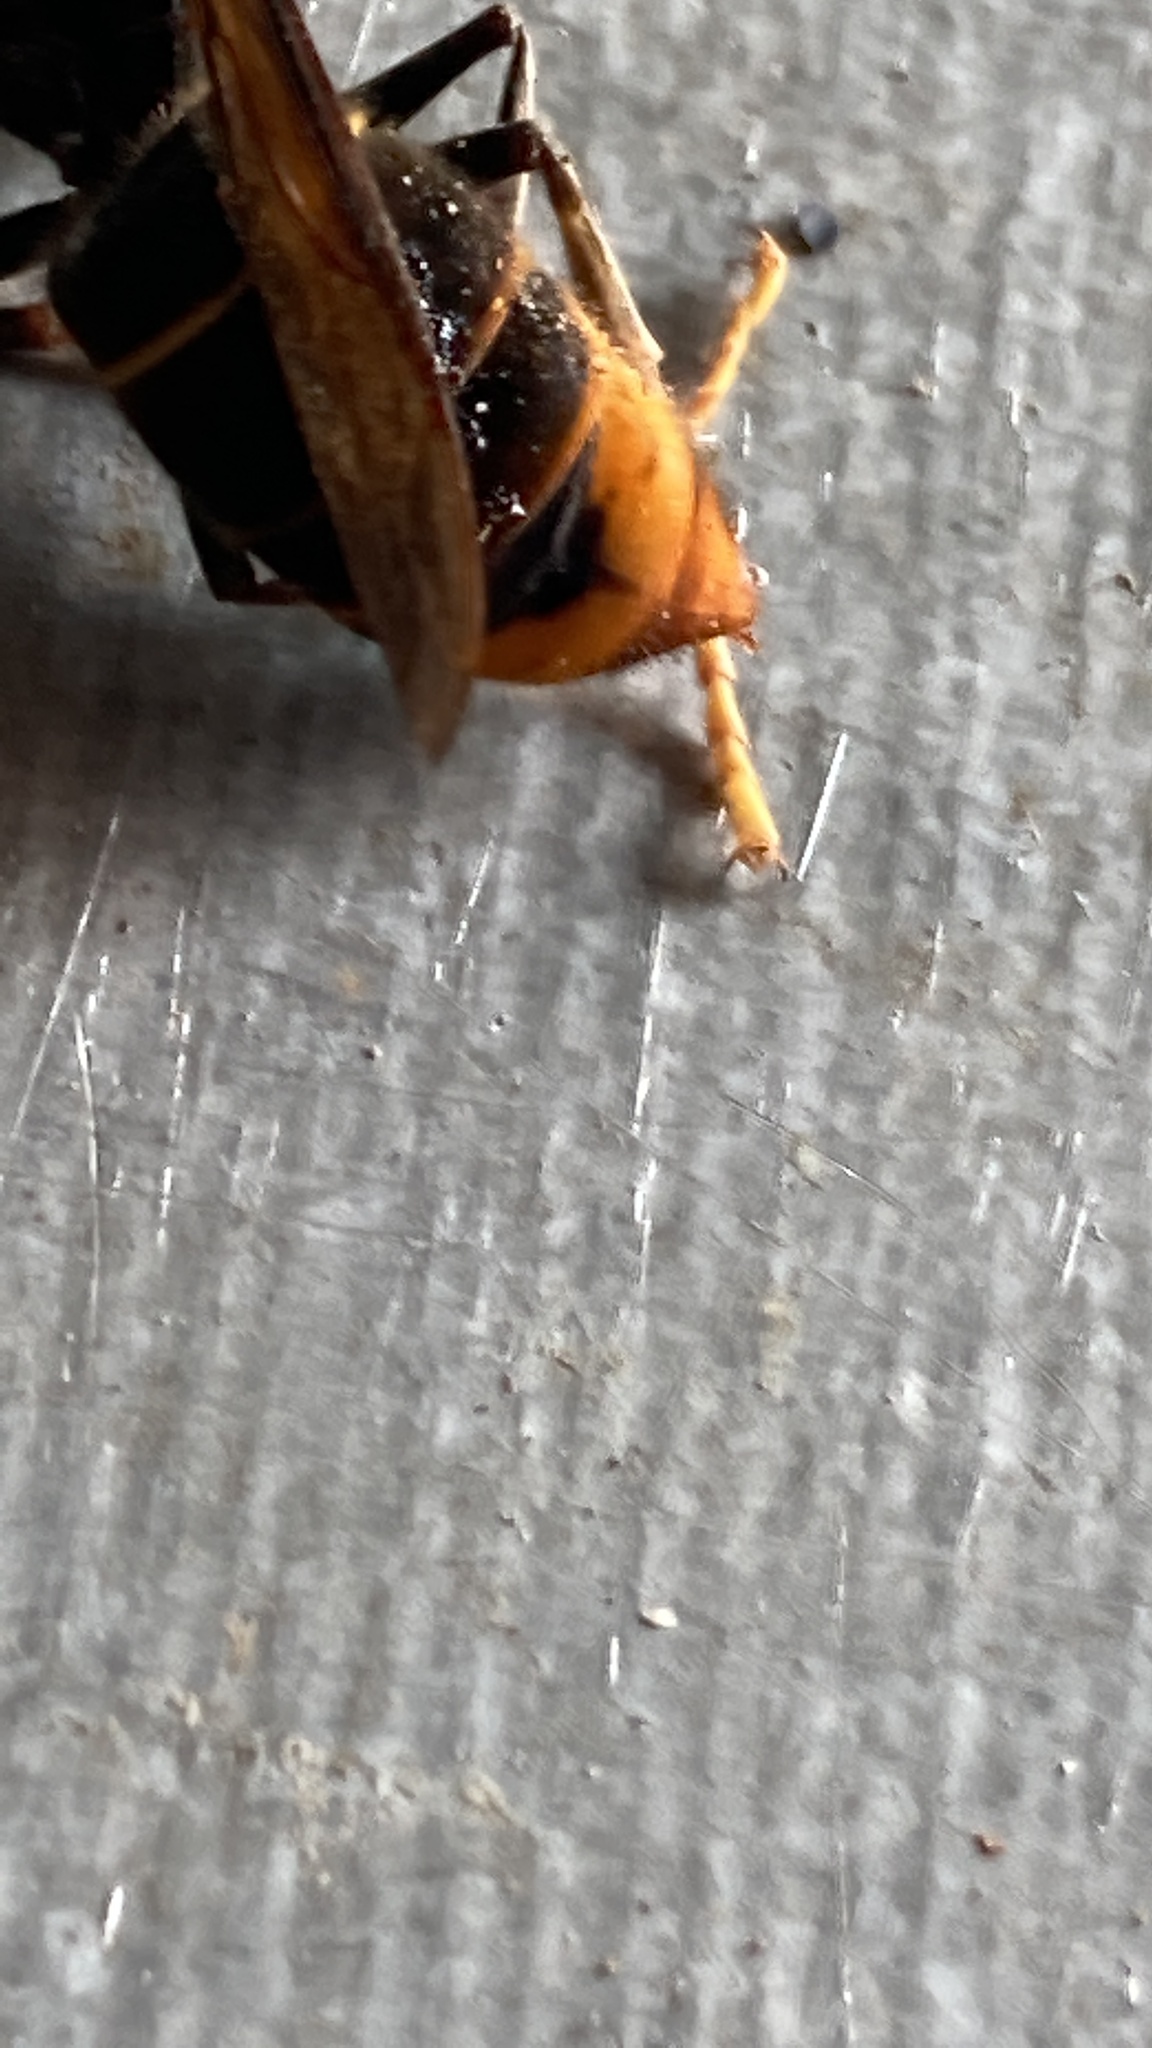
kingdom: Animalia
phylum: Arthropoda
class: Insecta
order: Hymenoptera
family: Vespidae
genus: Vespa
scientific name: Vespa velutina
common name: Asian hornet
